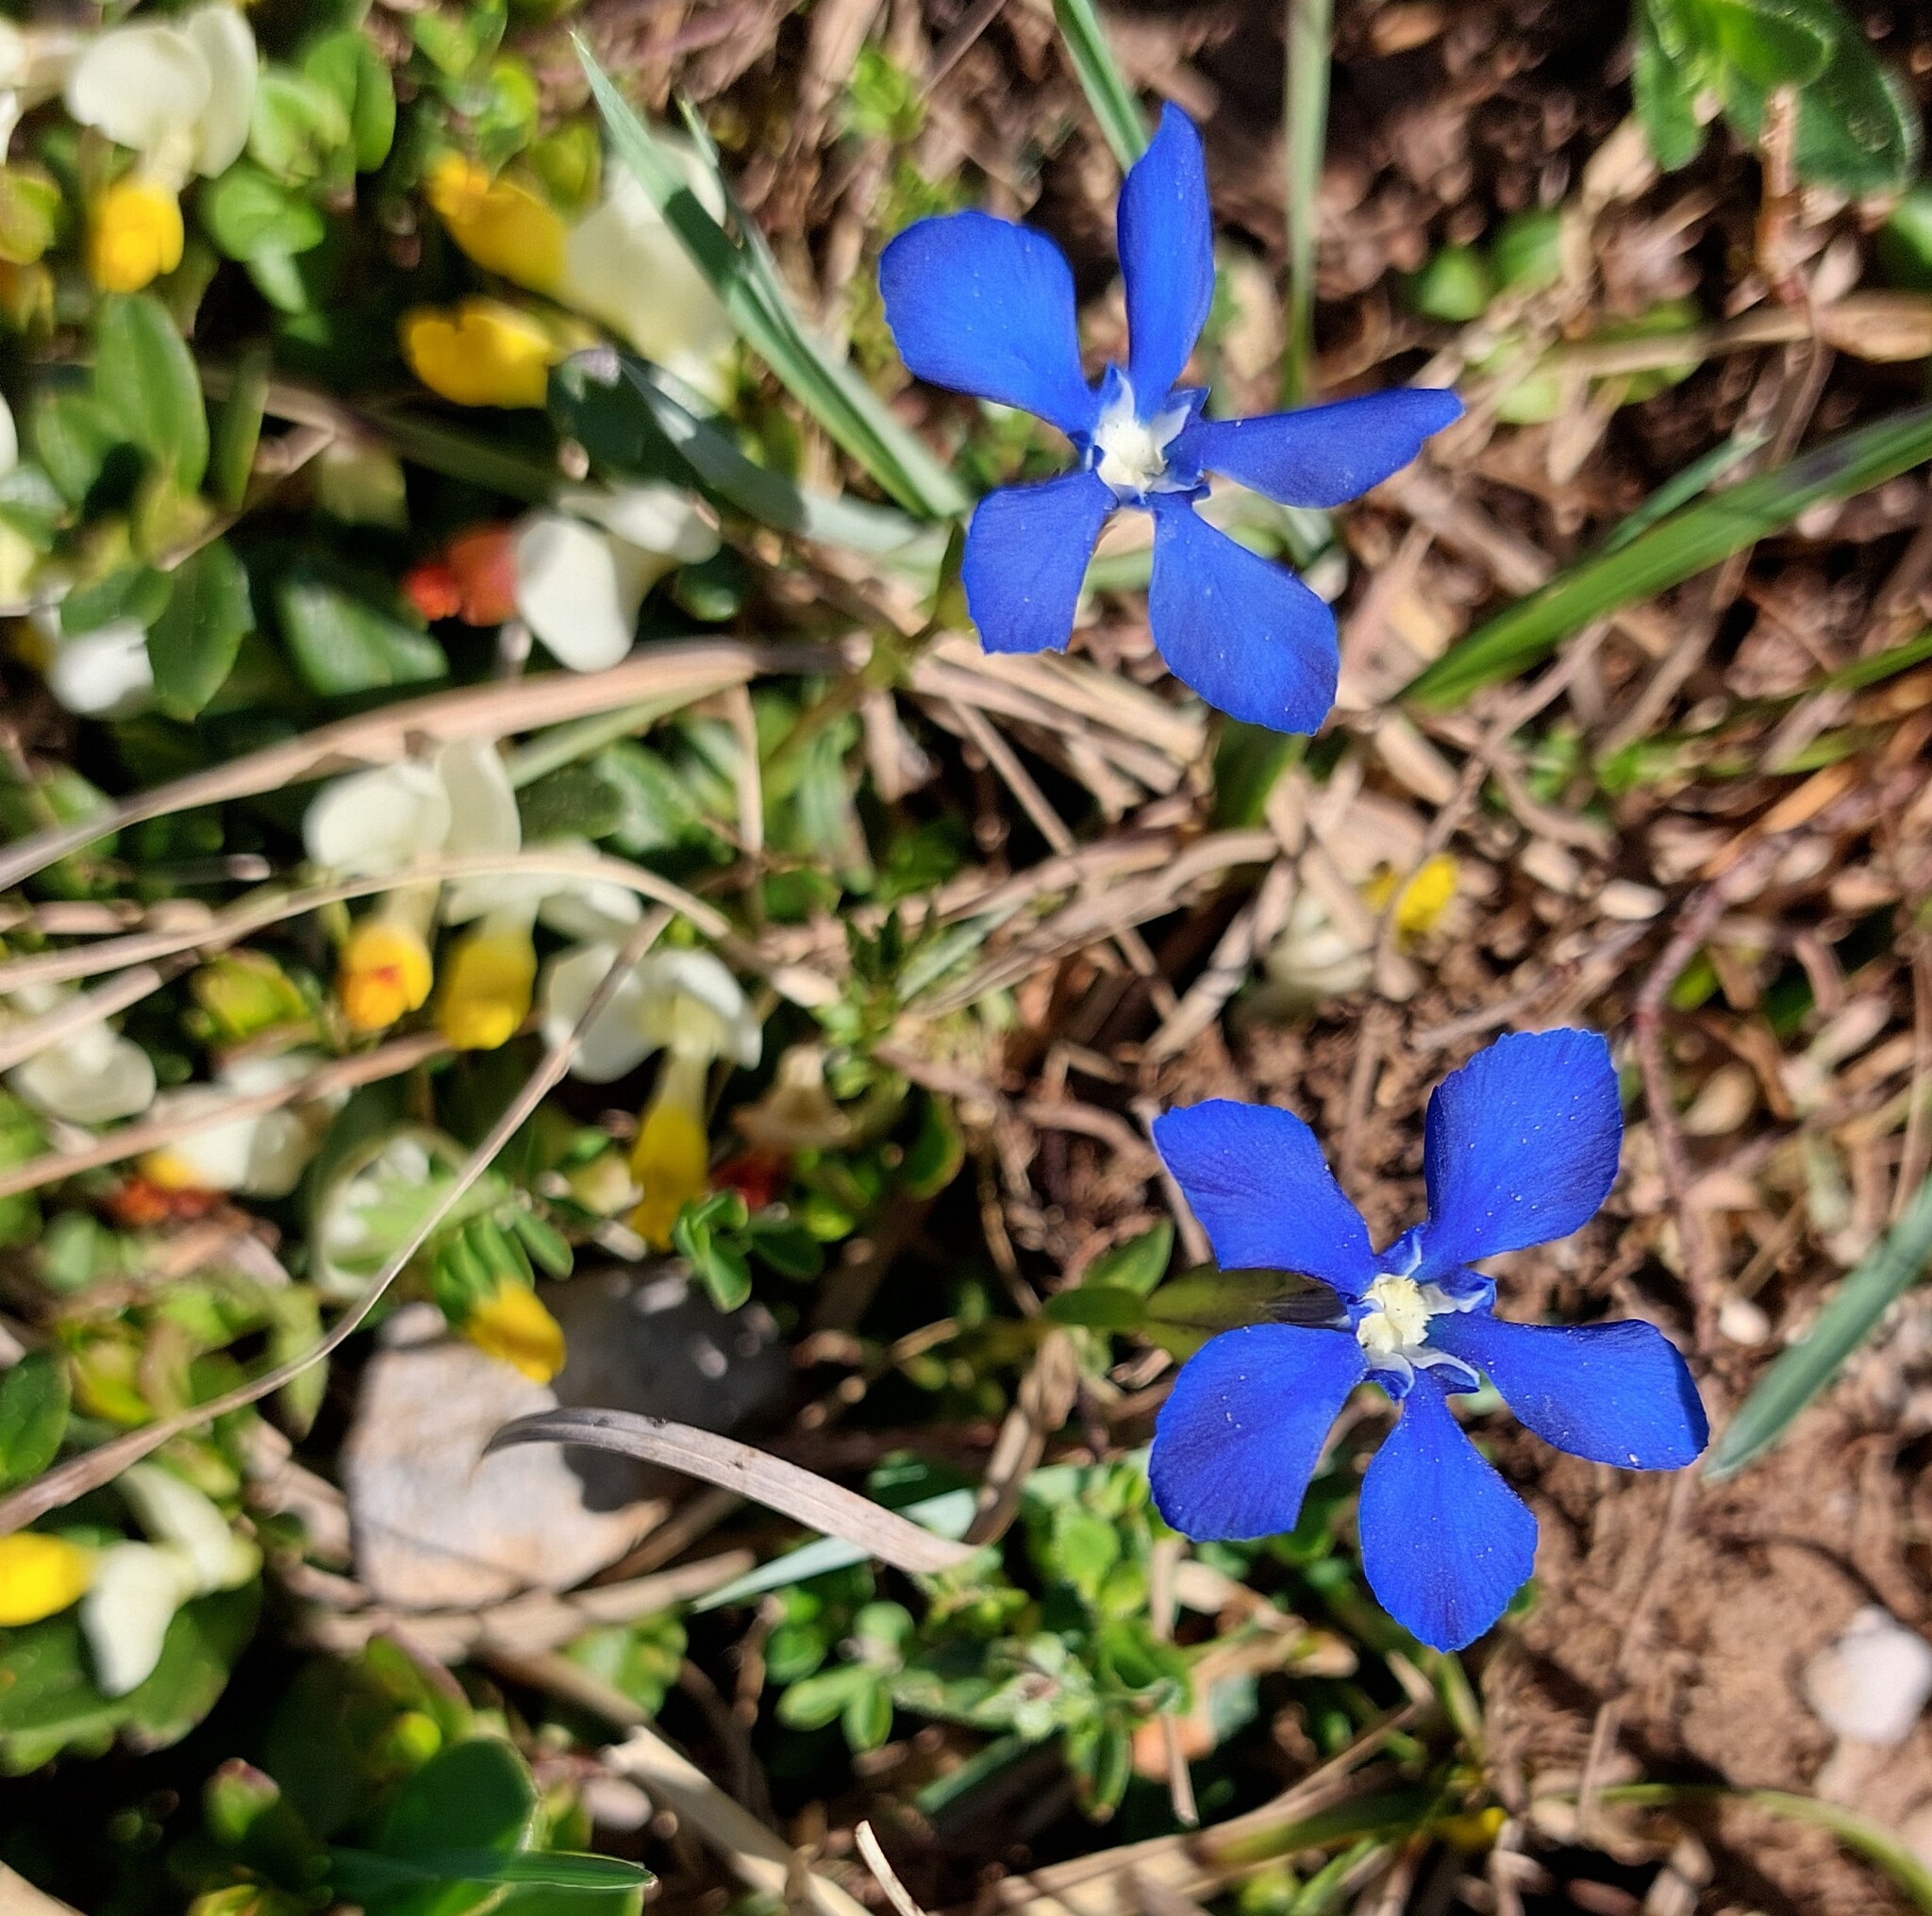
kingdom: Plantae
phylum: Tracheophyta
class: Magnoliopsida
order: Gentianales
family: Gentianaceae
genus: Gentiana
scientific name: Gentiana verna
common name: Spring gentian
